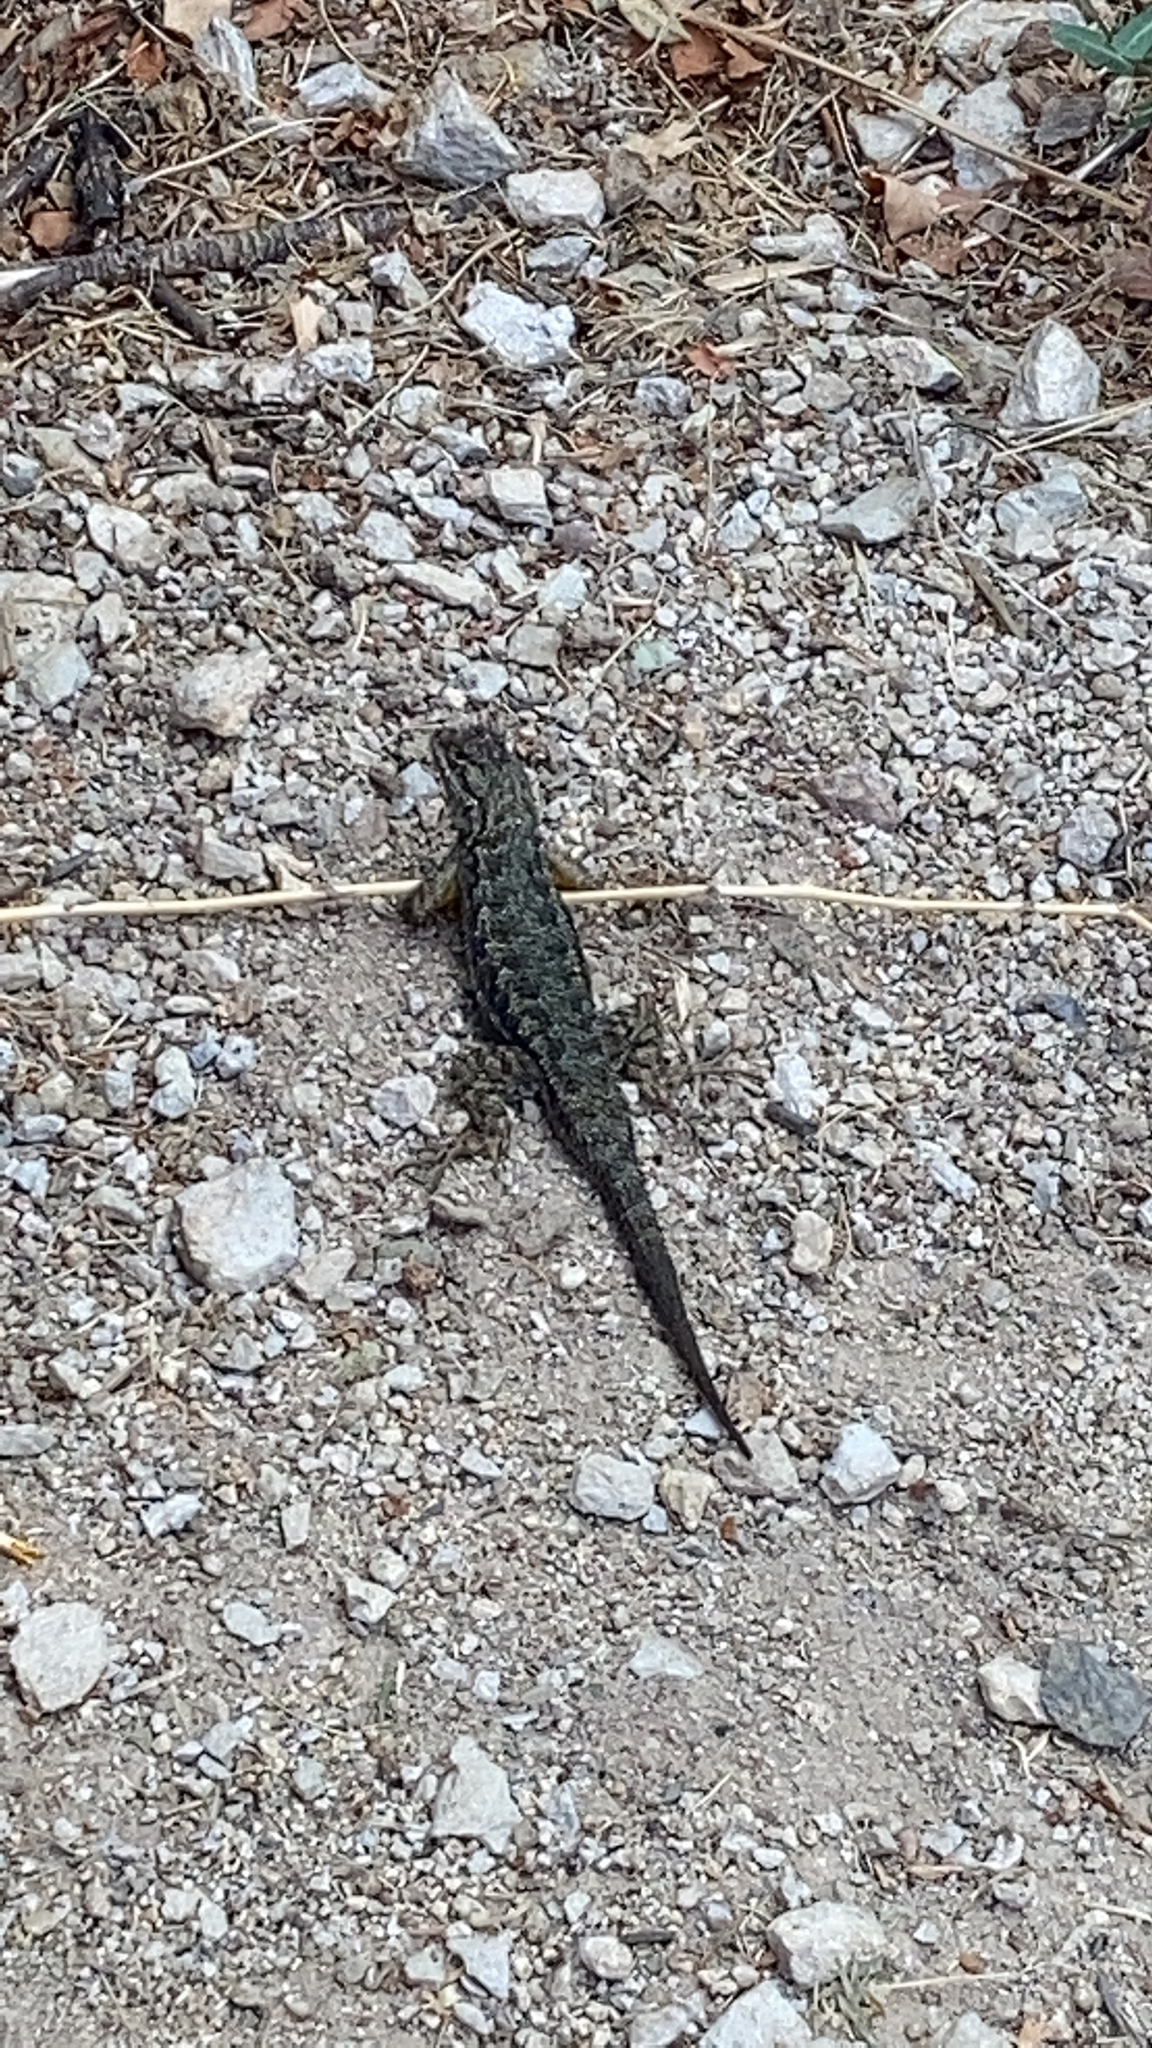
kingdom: Animalia
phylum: Chordata
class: Squamata
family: Phrynosomatidae
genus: Sceloporus
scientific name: Sceloporus occidentalis
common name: Western fence lizard
